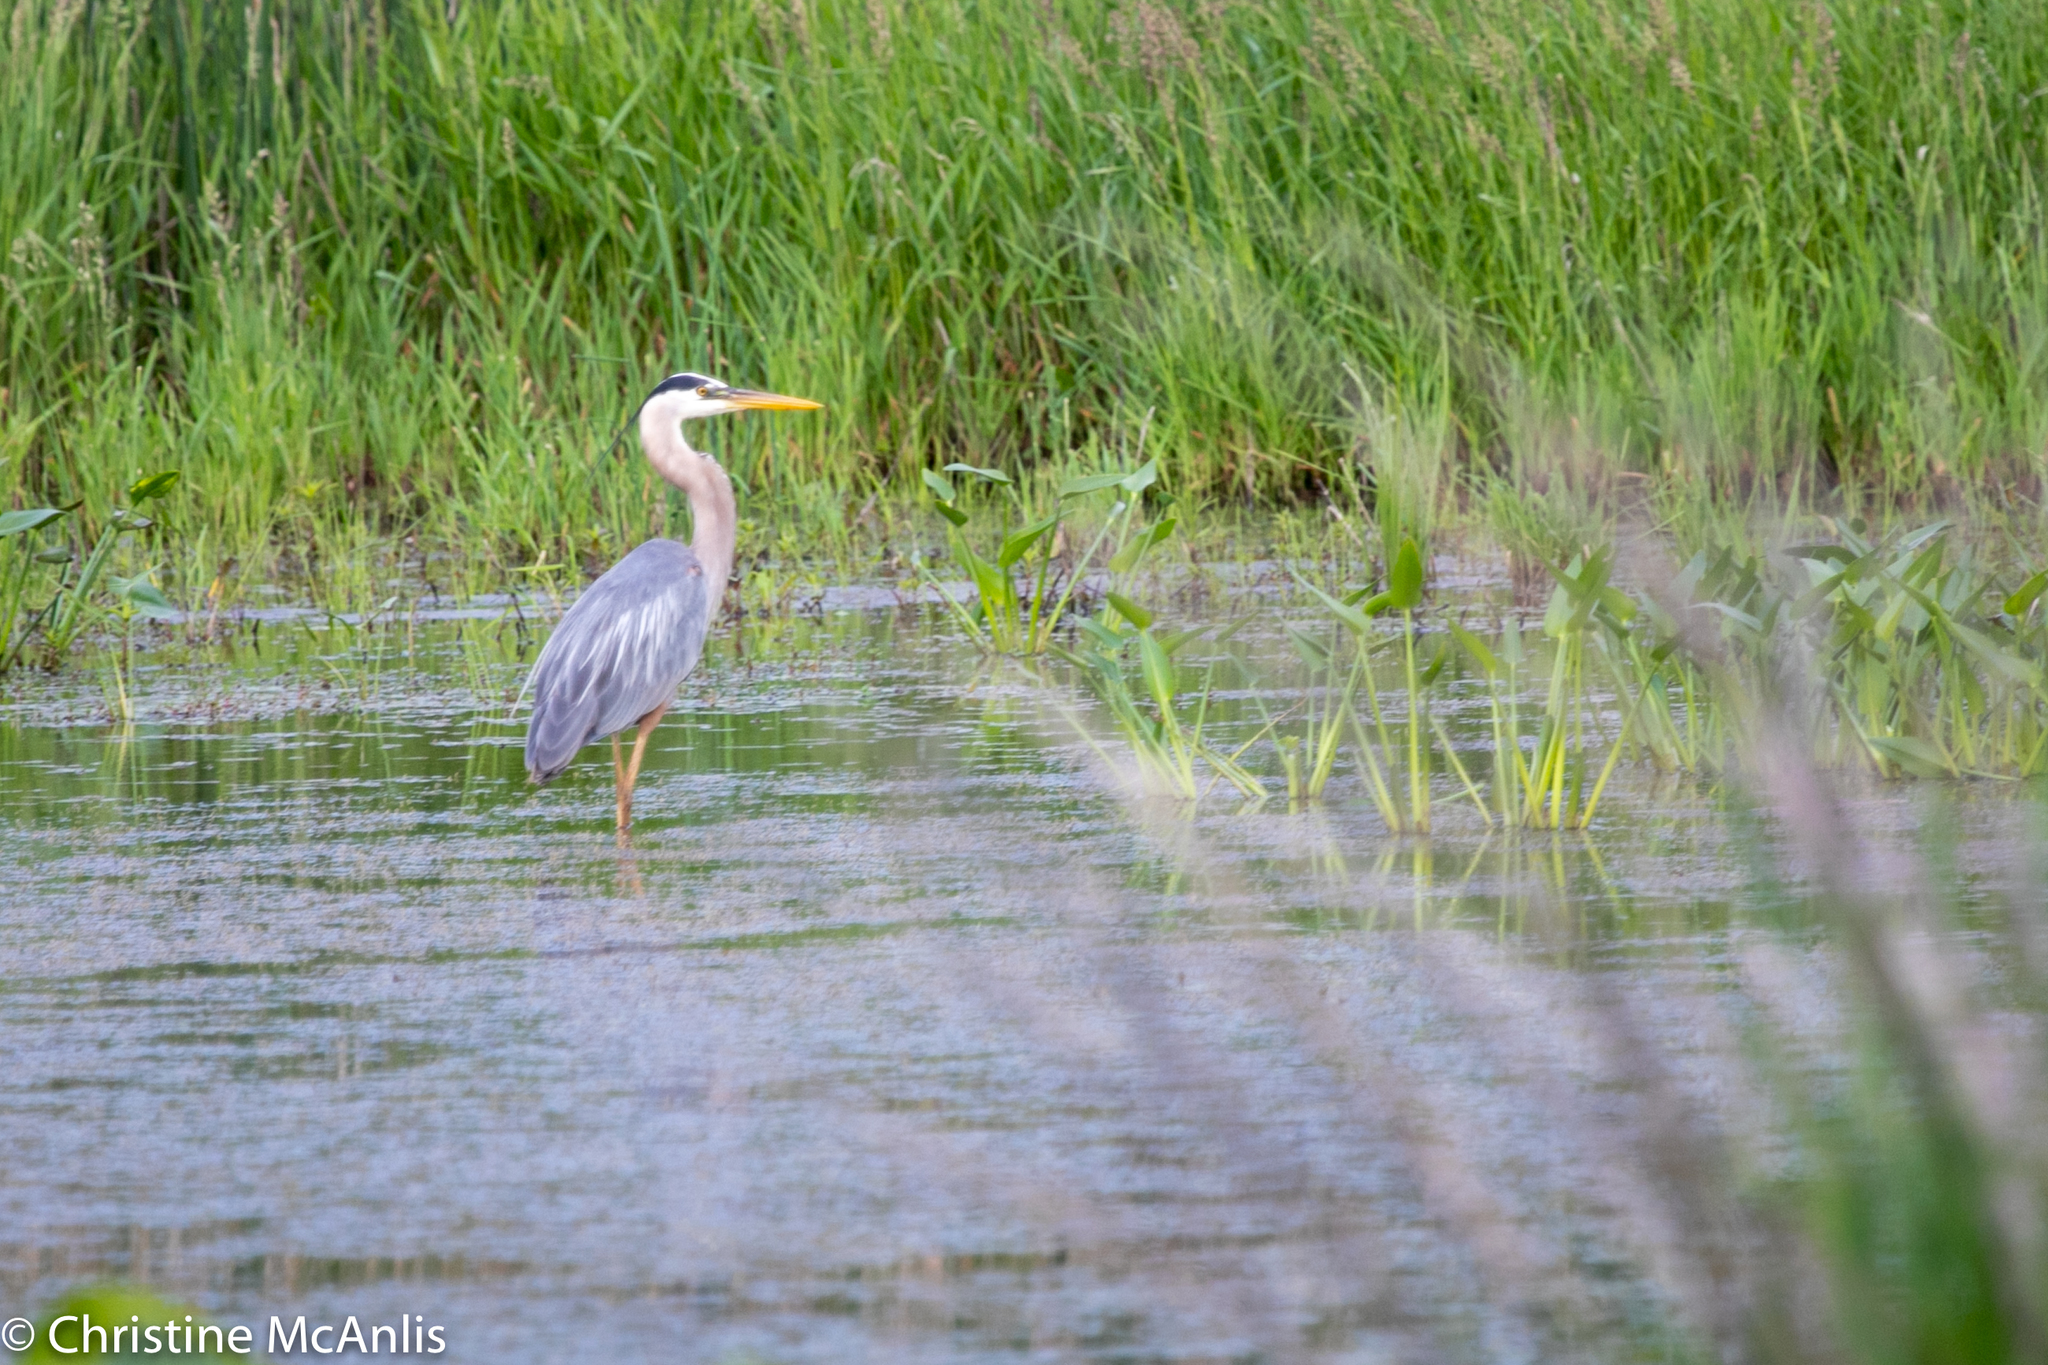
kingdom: Animalia
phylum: Chordata
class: Aves
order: Pelecaniformes
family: Ardeidae
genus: Ardea
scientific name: Ardea herodias
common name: Great blue heron
